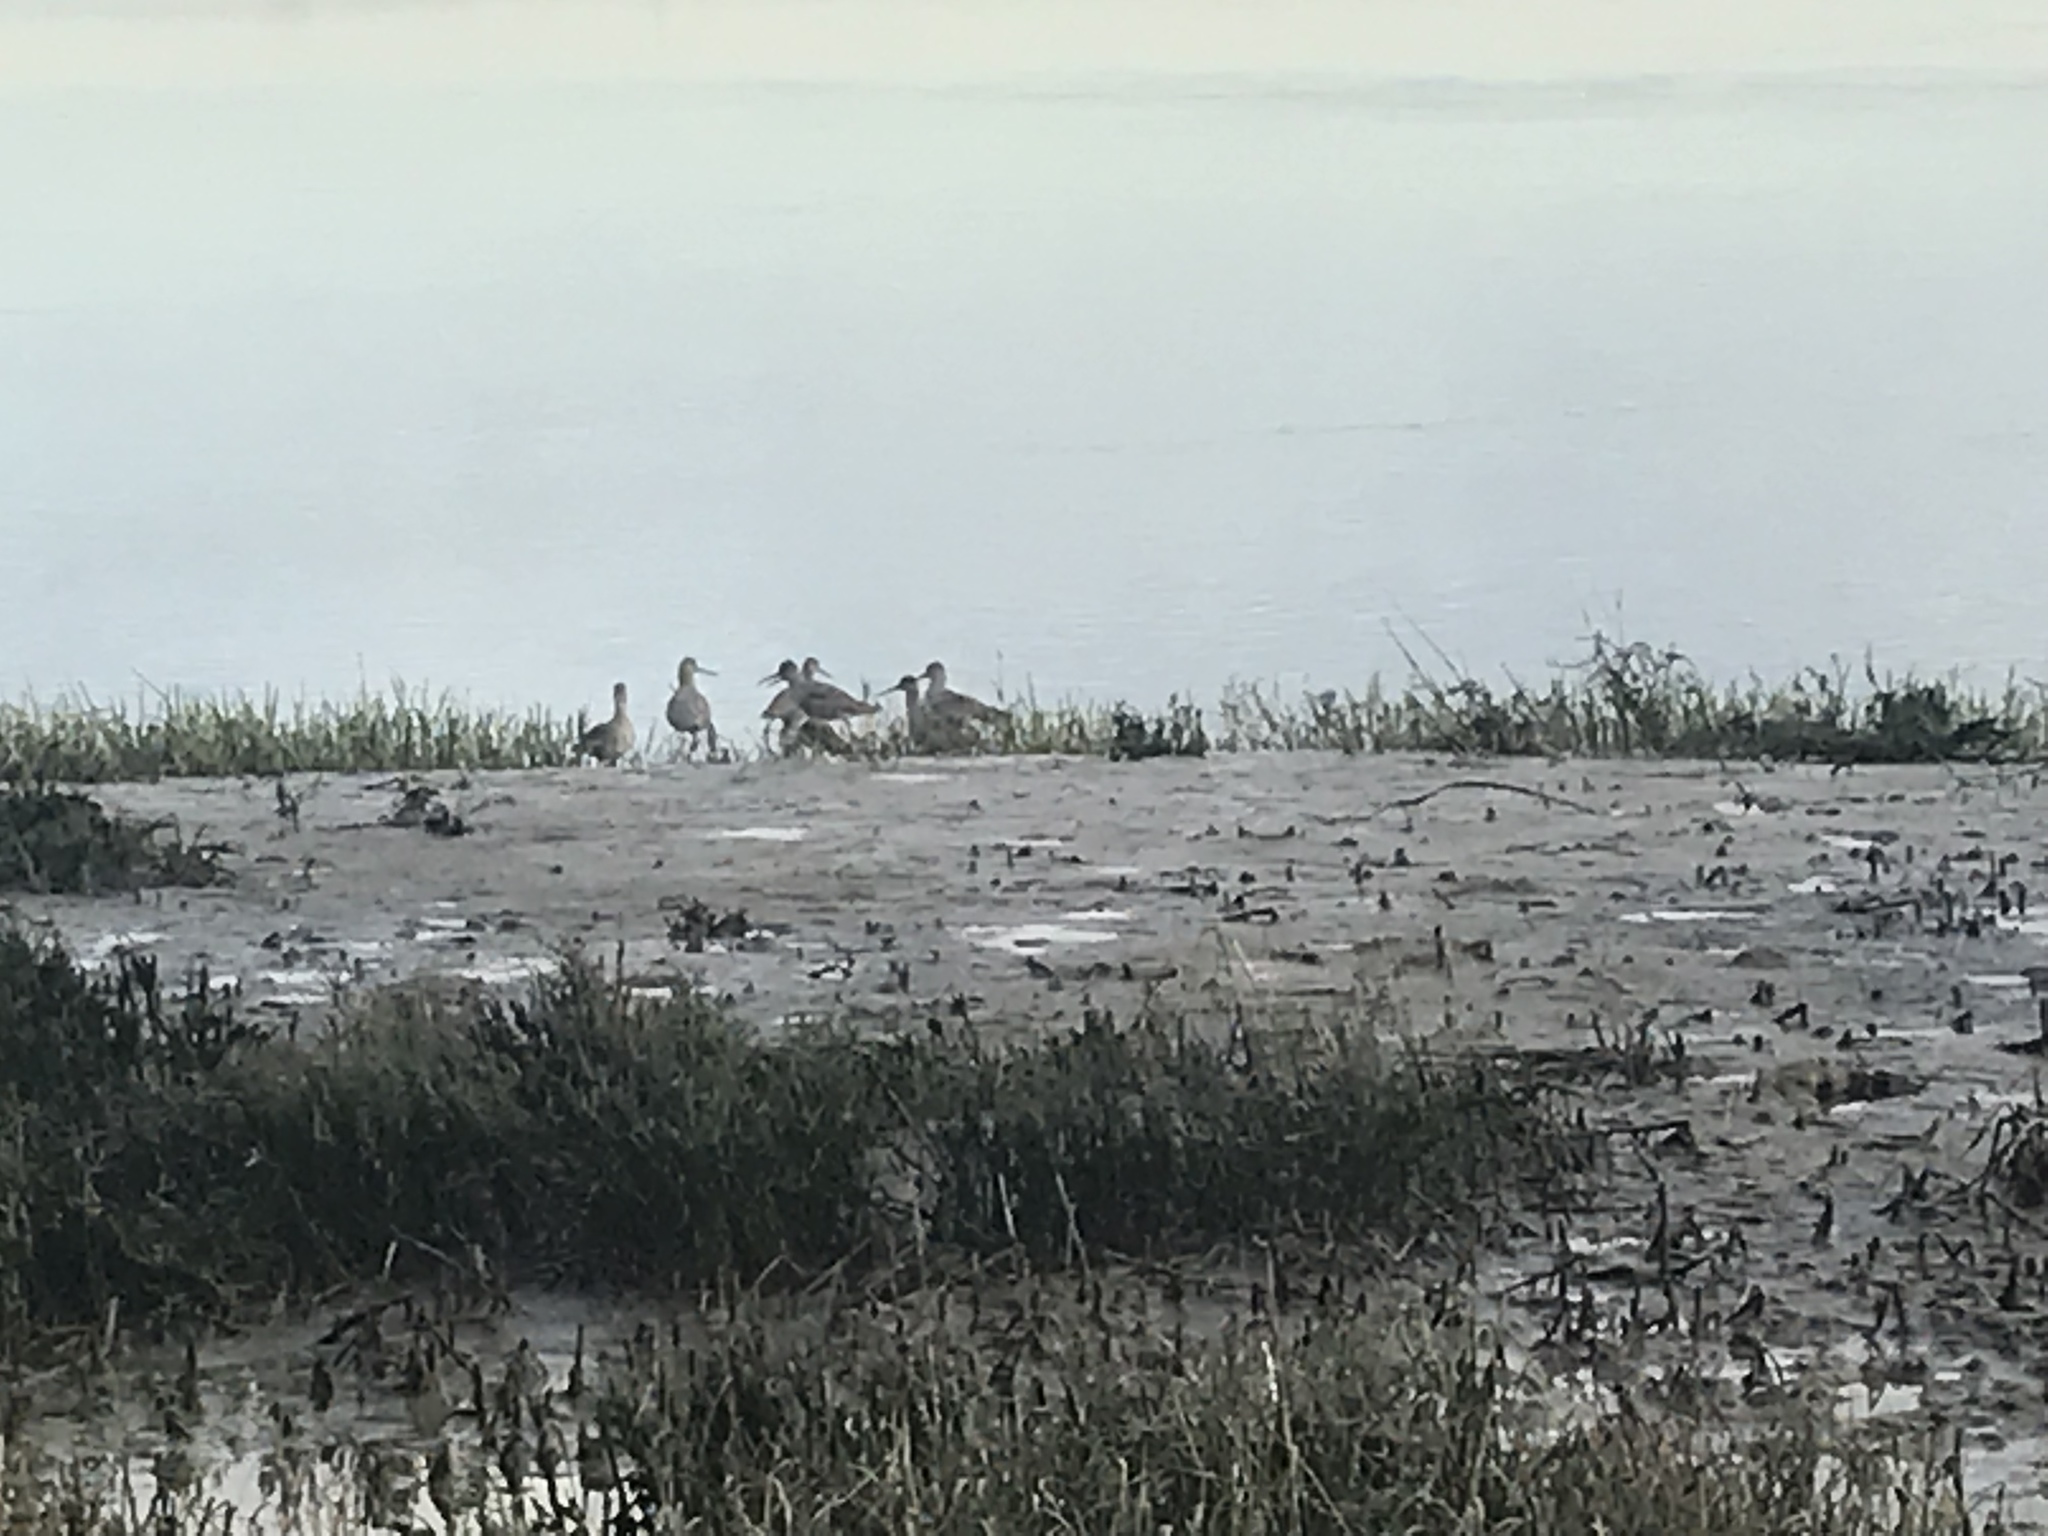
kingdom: Animalia
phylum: Chordata
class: Aves
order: Charadriiformes
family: Scolopacidae
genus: Tringa
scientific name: Tringa semipalmata
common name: Willet
